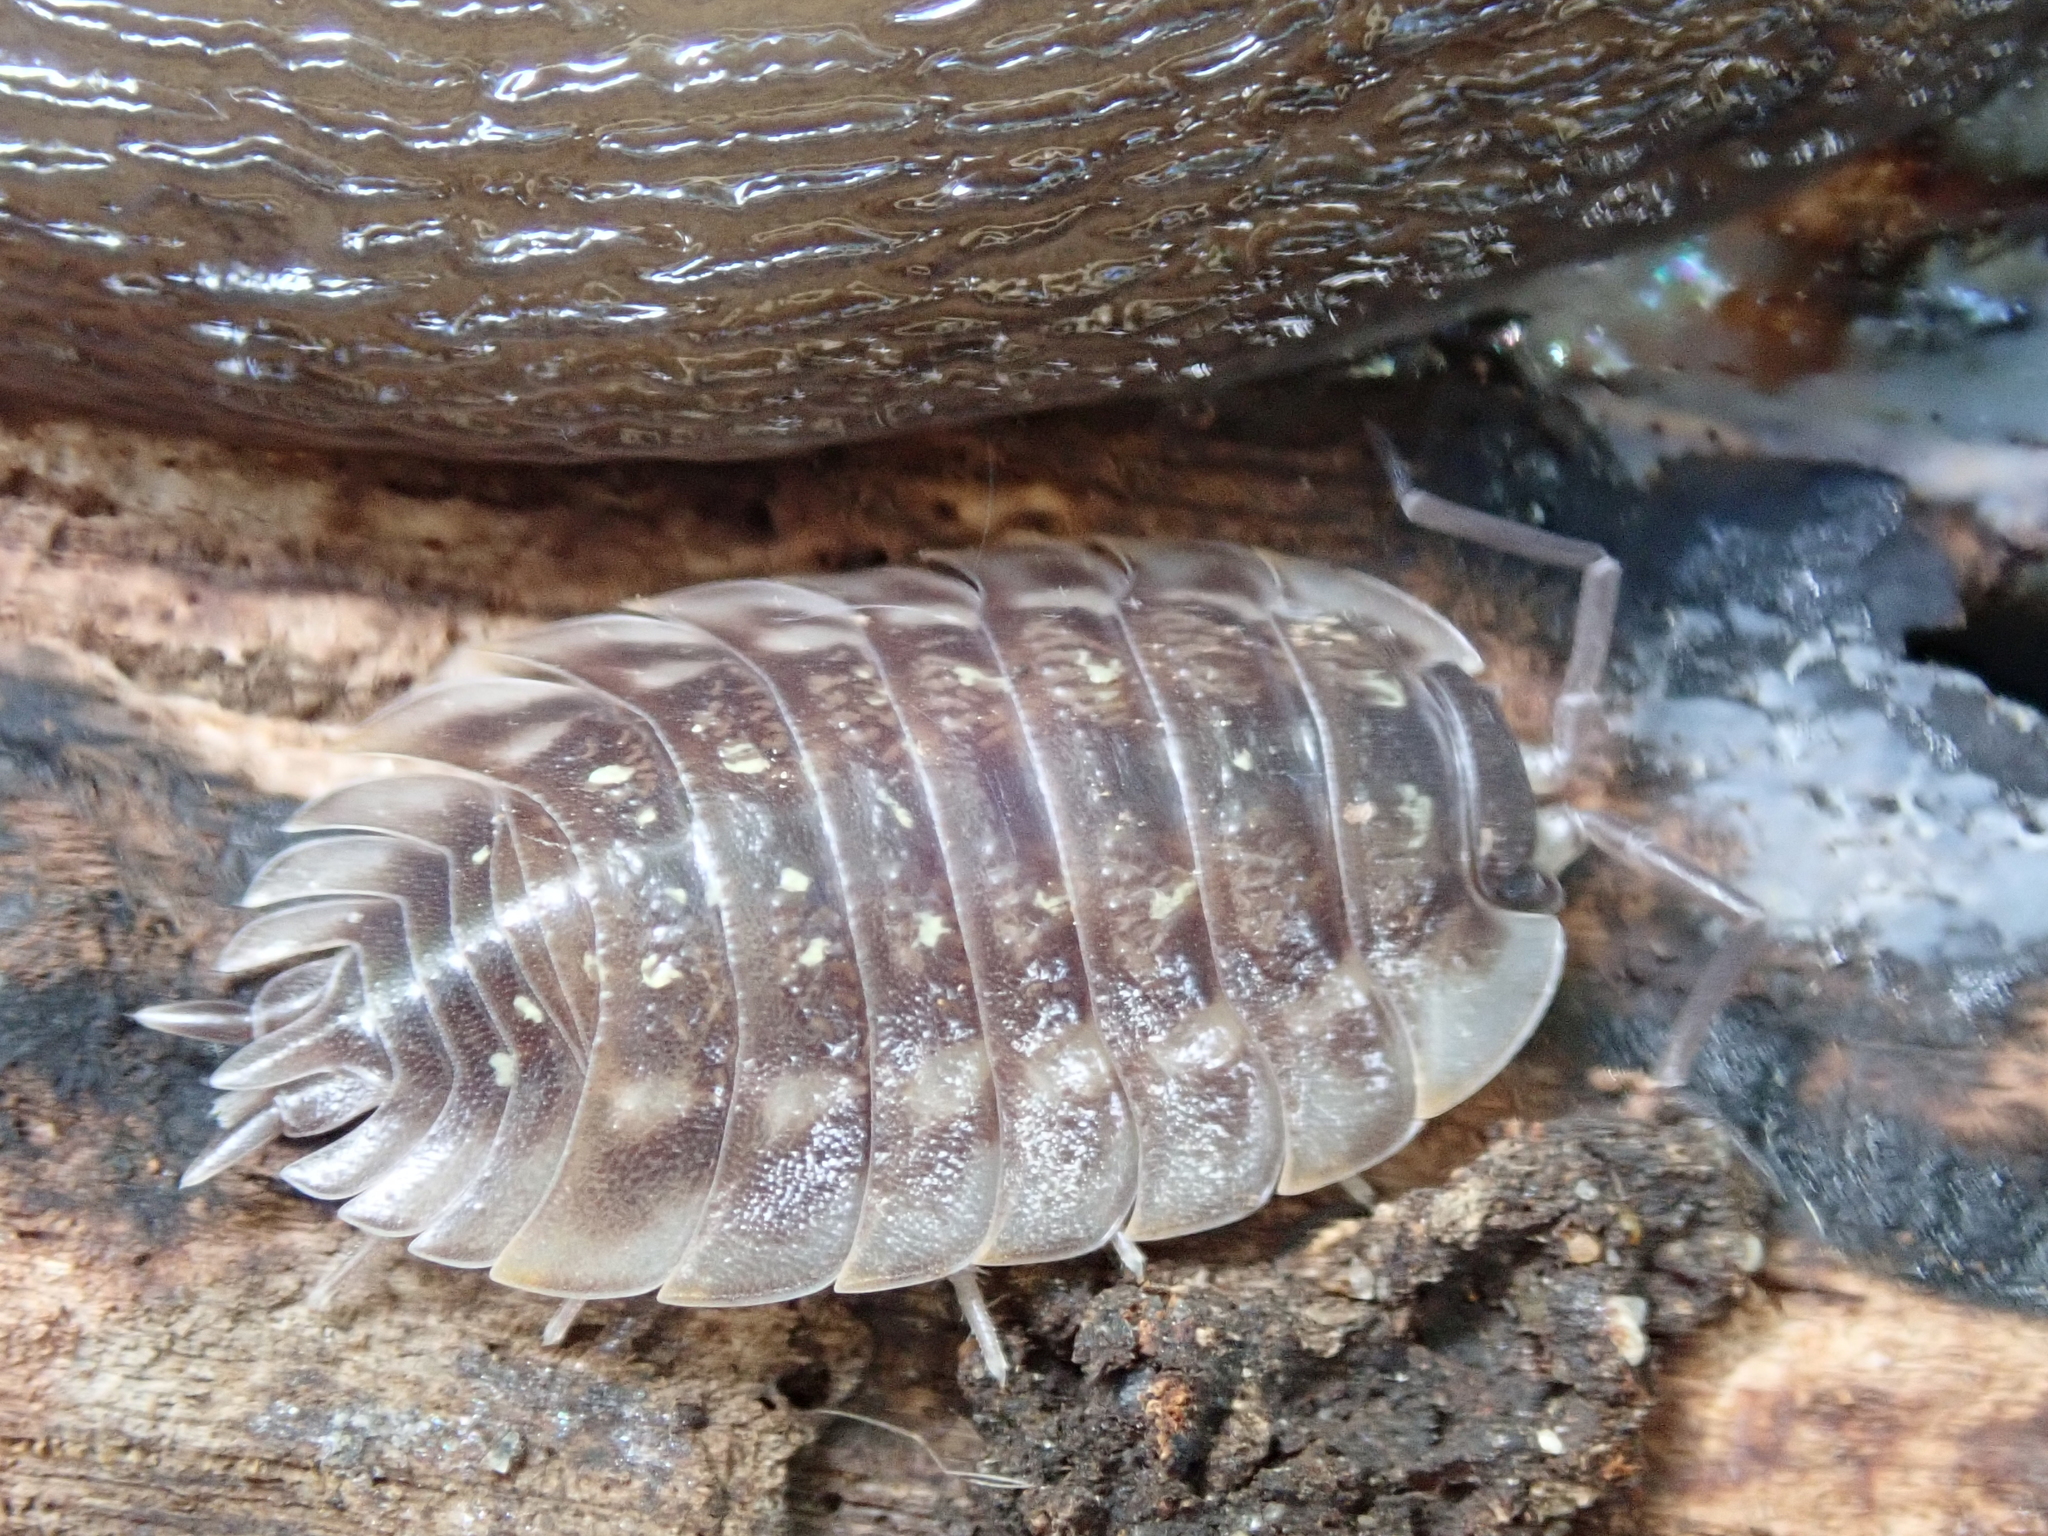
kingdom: Animalia
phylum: Arthropoda
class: Malacostraca
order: Isopoda
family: Oniscidae
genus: Oniscus
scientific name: Oniscus asellus
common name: Common shiny woodlouse
